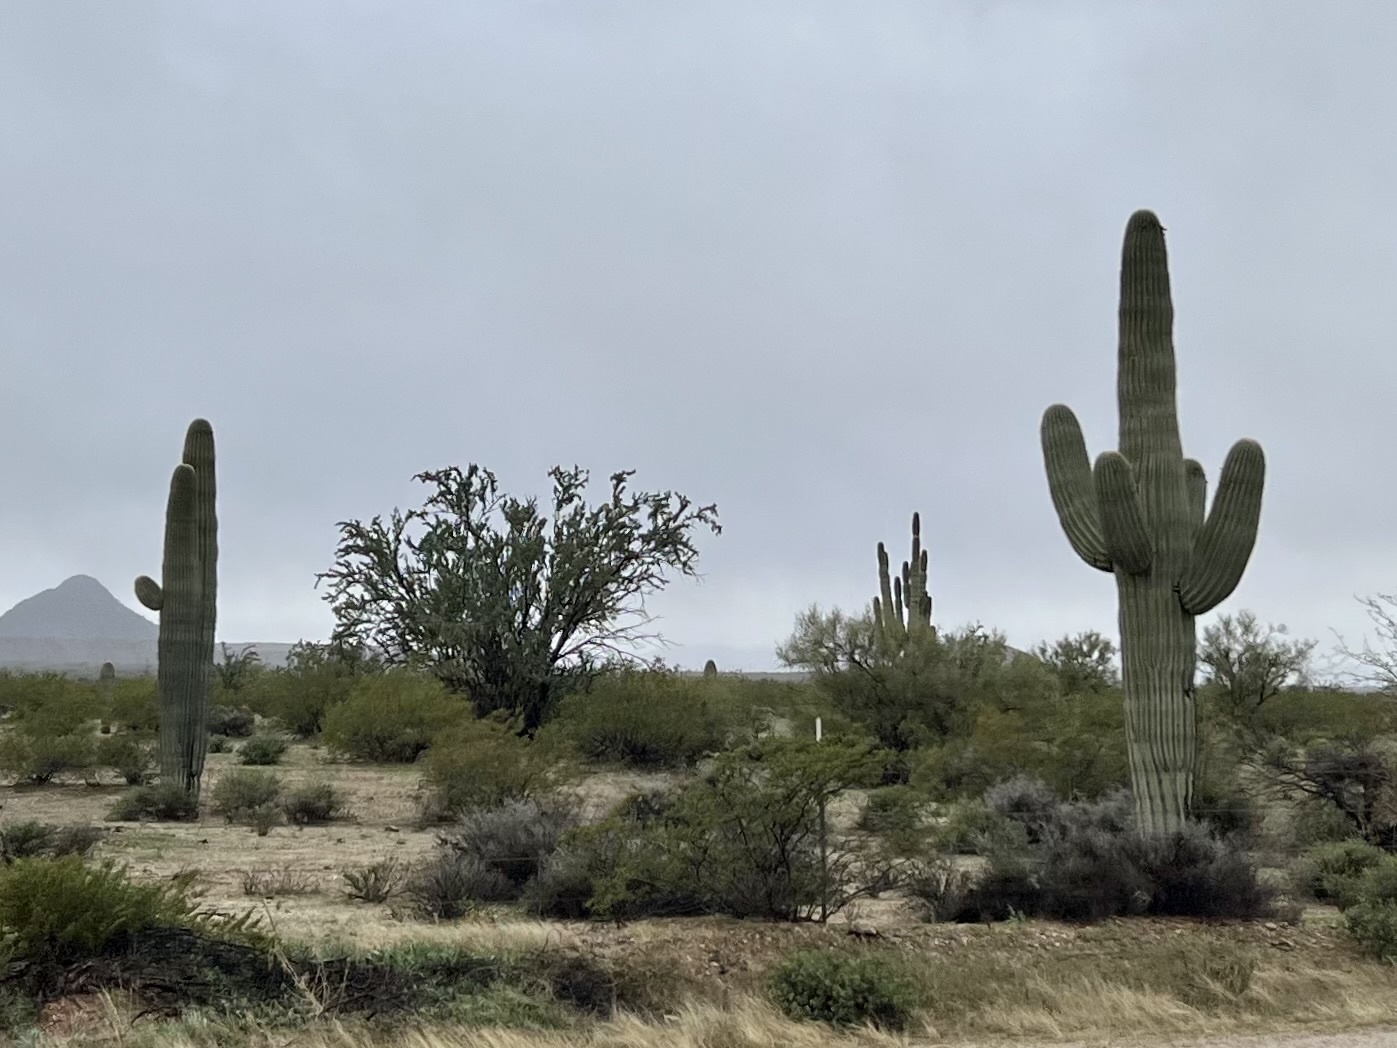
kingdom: Plantae
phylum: Tracheophyta
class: Magnoliopsida
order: Caryophyllales
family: Cactaceae
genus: Carnegiea
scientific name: Carnegiea gigantea
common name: Saguaro
